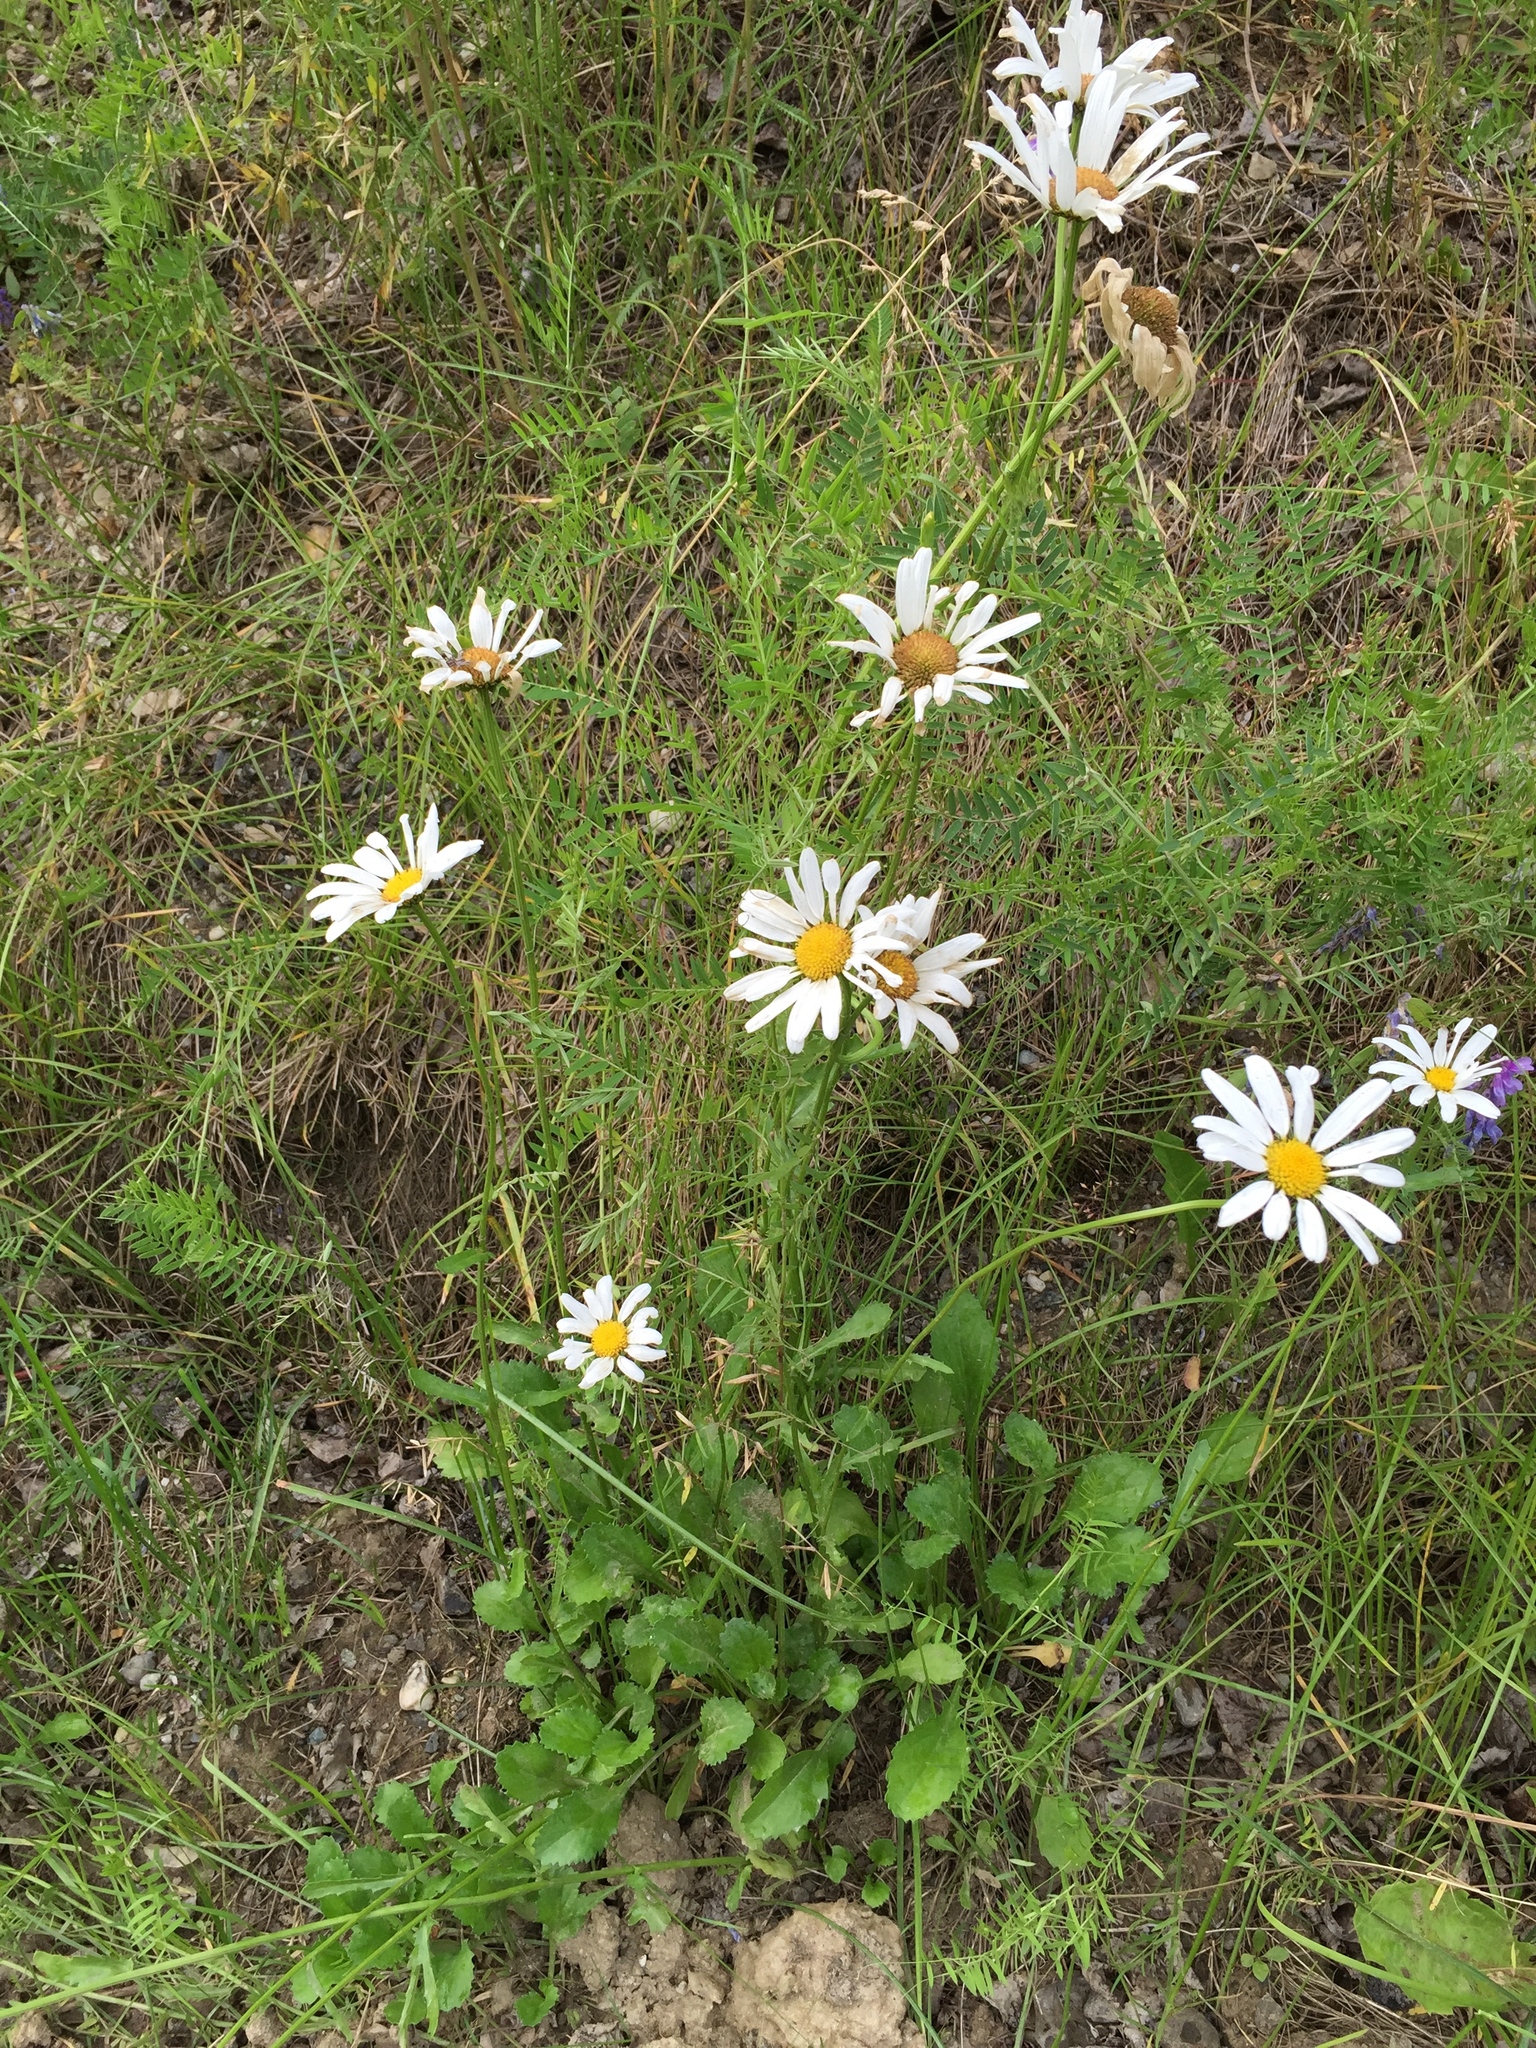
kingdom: Plantae
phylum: Tracheophyta
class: Magnoliopsida
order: Asterales
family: Asteraceae
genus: Leucanthemum
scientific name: Leucanthemum vulgare
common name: Oxeye daisy
